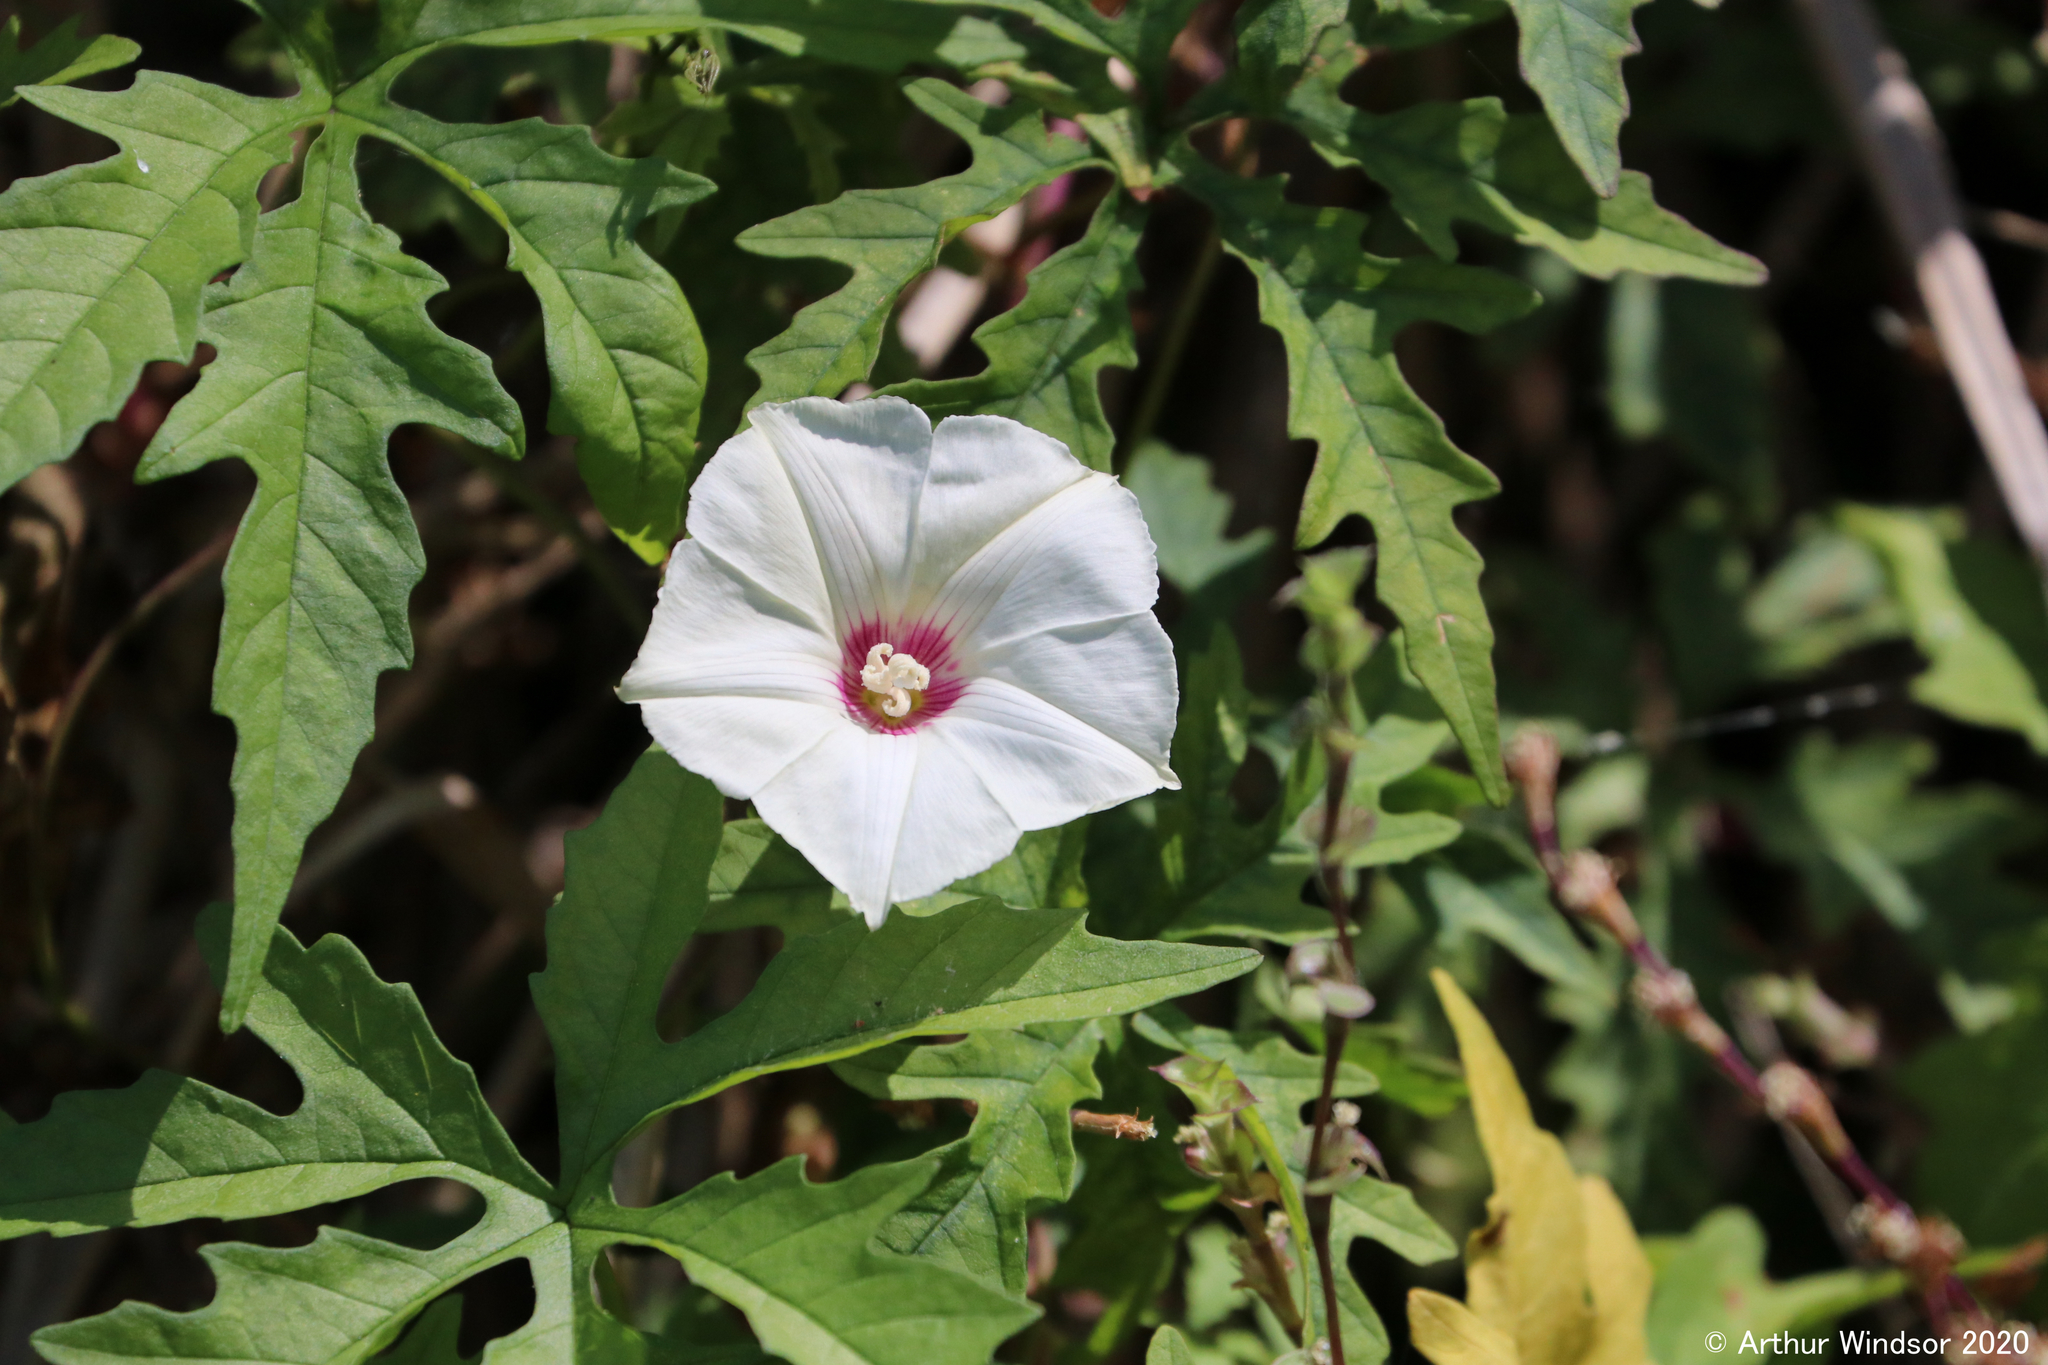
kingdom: Plantae
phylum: Tracheophyta
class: Magnoliopsida
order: Solanales
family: Convolvulaceae
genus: Distimake
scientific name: Distimake dissectus
